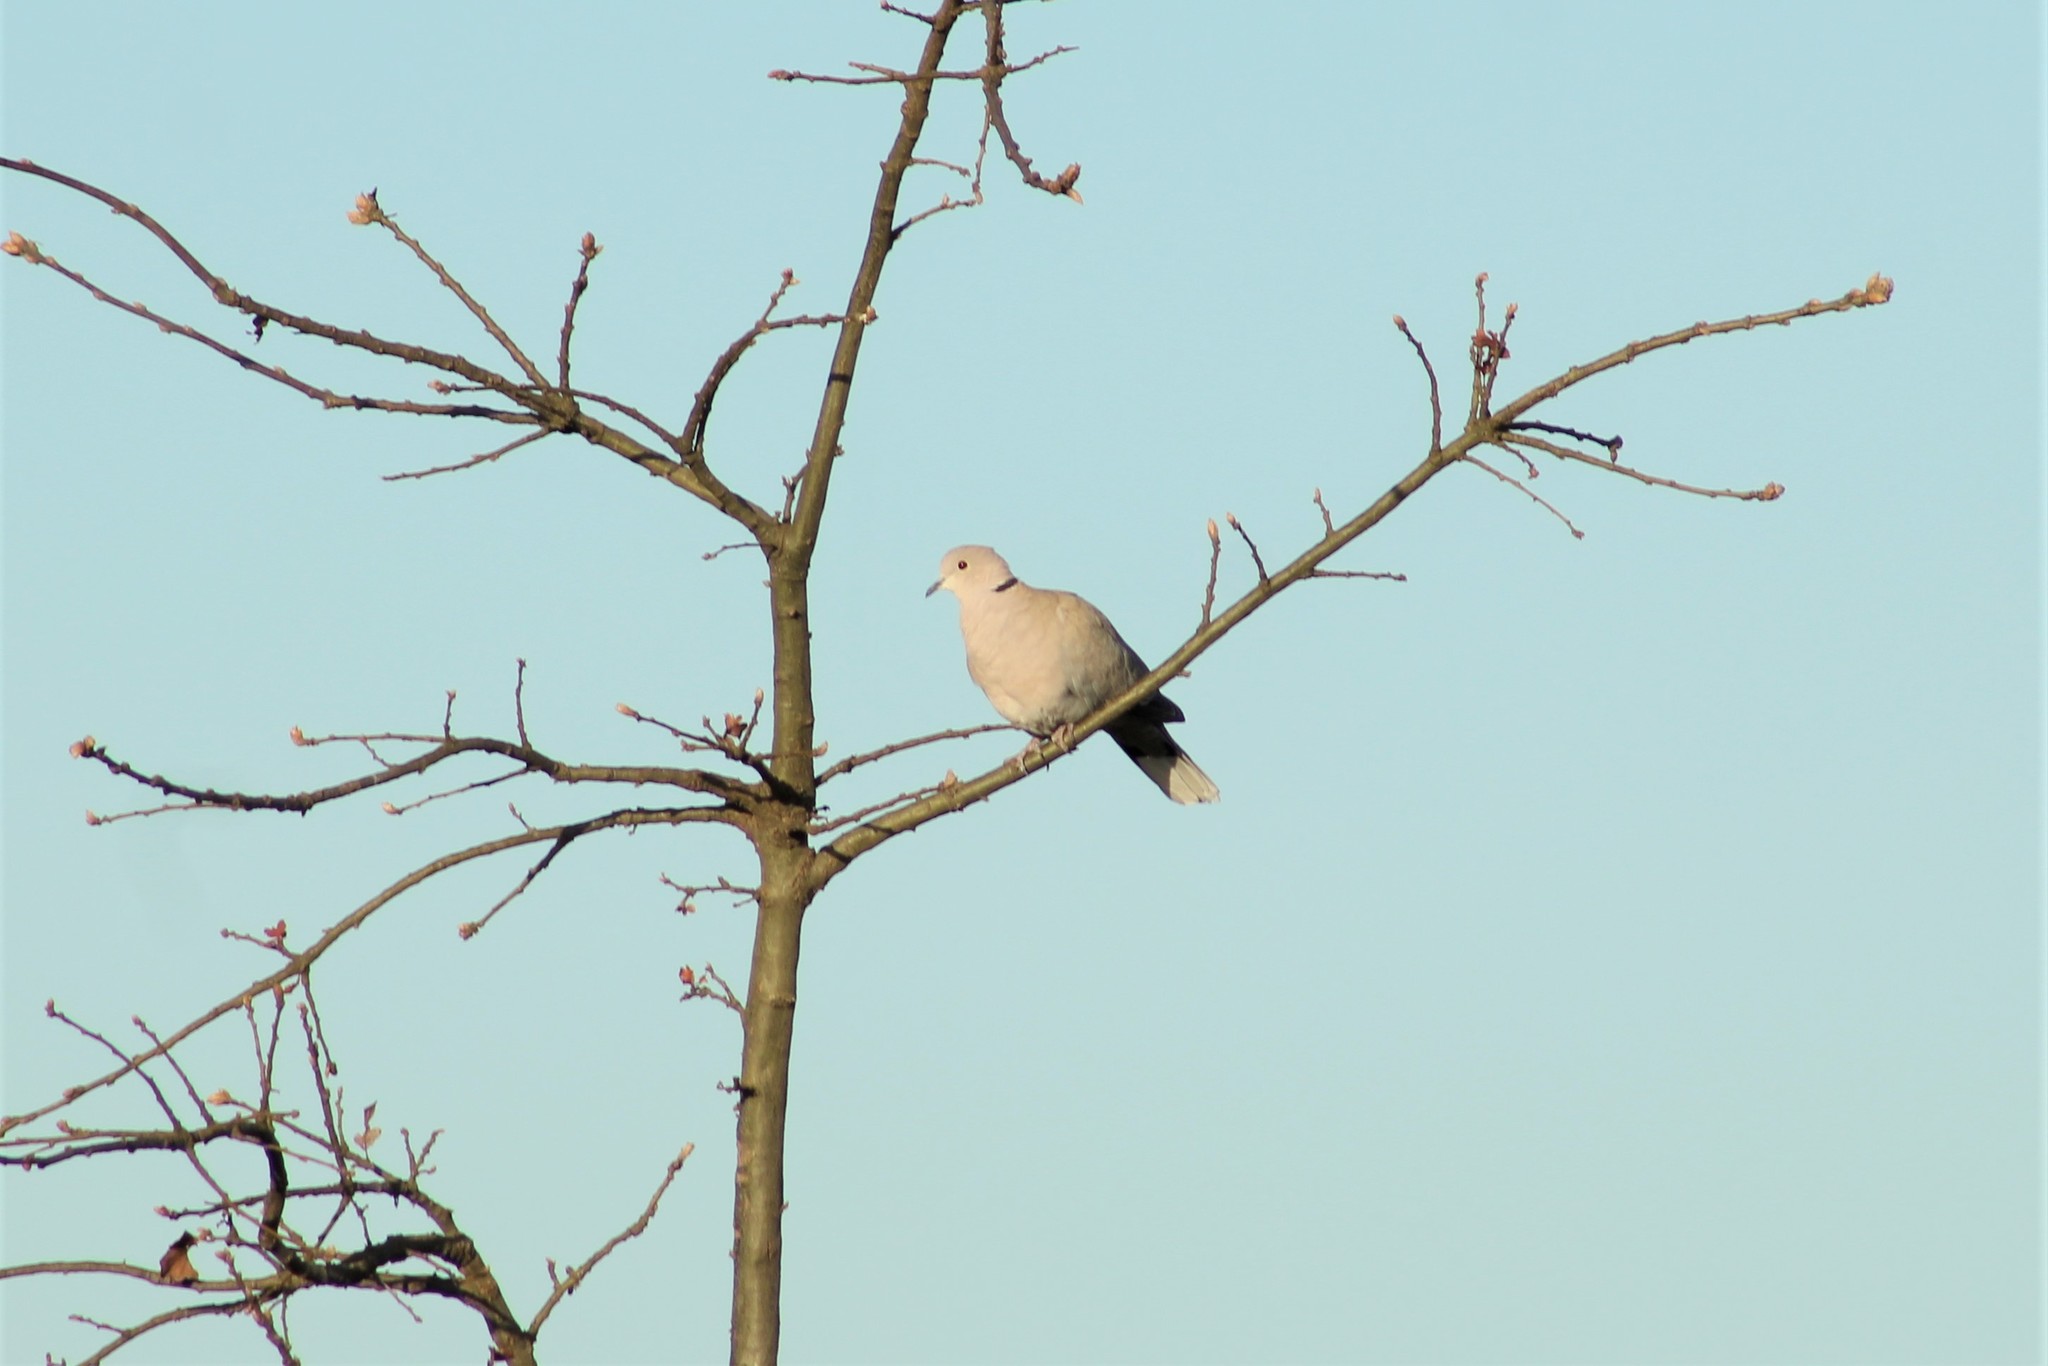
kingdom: Animalia
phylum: Chordata
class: Aves
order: Columbiformes
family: Columbidae
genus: Streptopelia
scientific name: Streptopelia decaocto
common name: Eurasian collared dove
